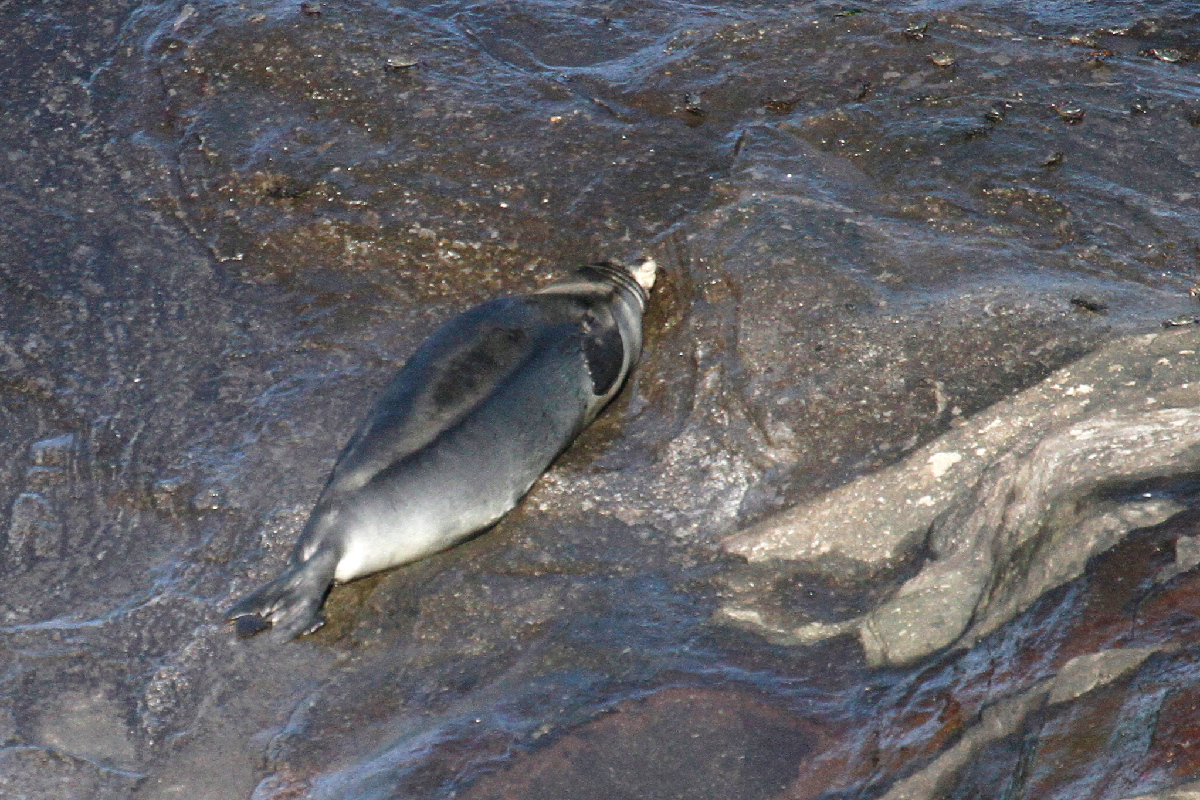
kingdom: Animalia
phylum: Chordata
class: Mammalia
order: Carnivora
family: Phocidae
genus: Neomonachus
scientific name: Neomonachus schauinslandi
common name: Hawaiian monk seal
